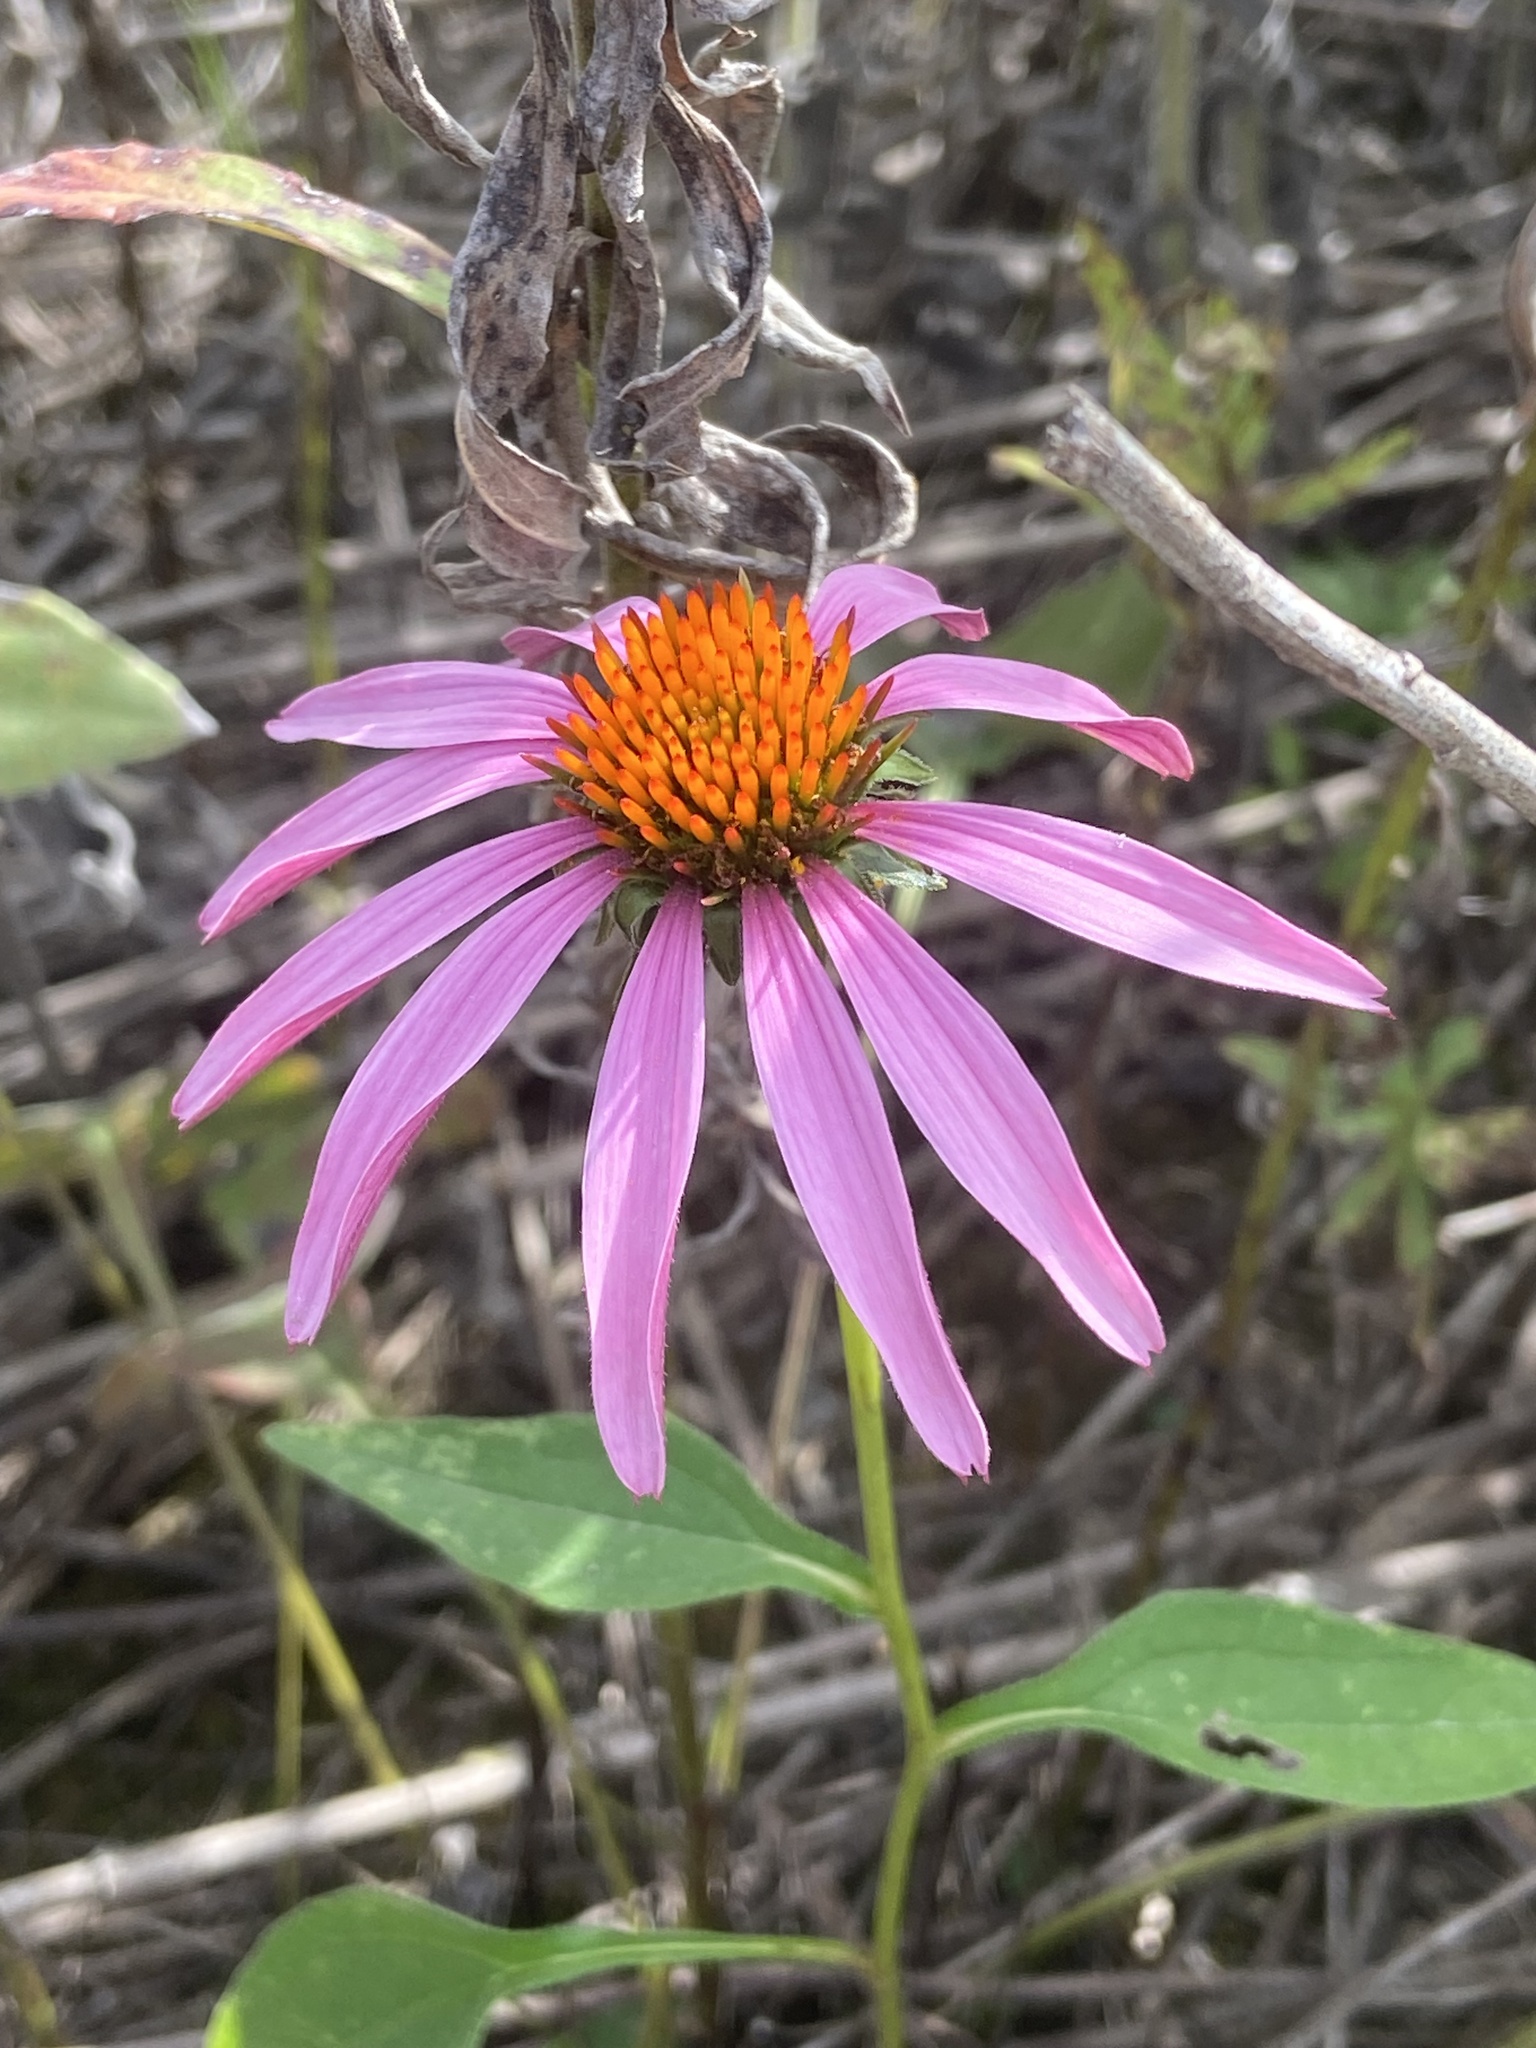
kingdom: Plantae
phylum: Tracheophyta
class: Magnoliopsida
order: Asterales
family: Asteraceae
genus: Echinacea
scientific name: Echinacea purpurea
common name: Broad-leaved purple coneflower
